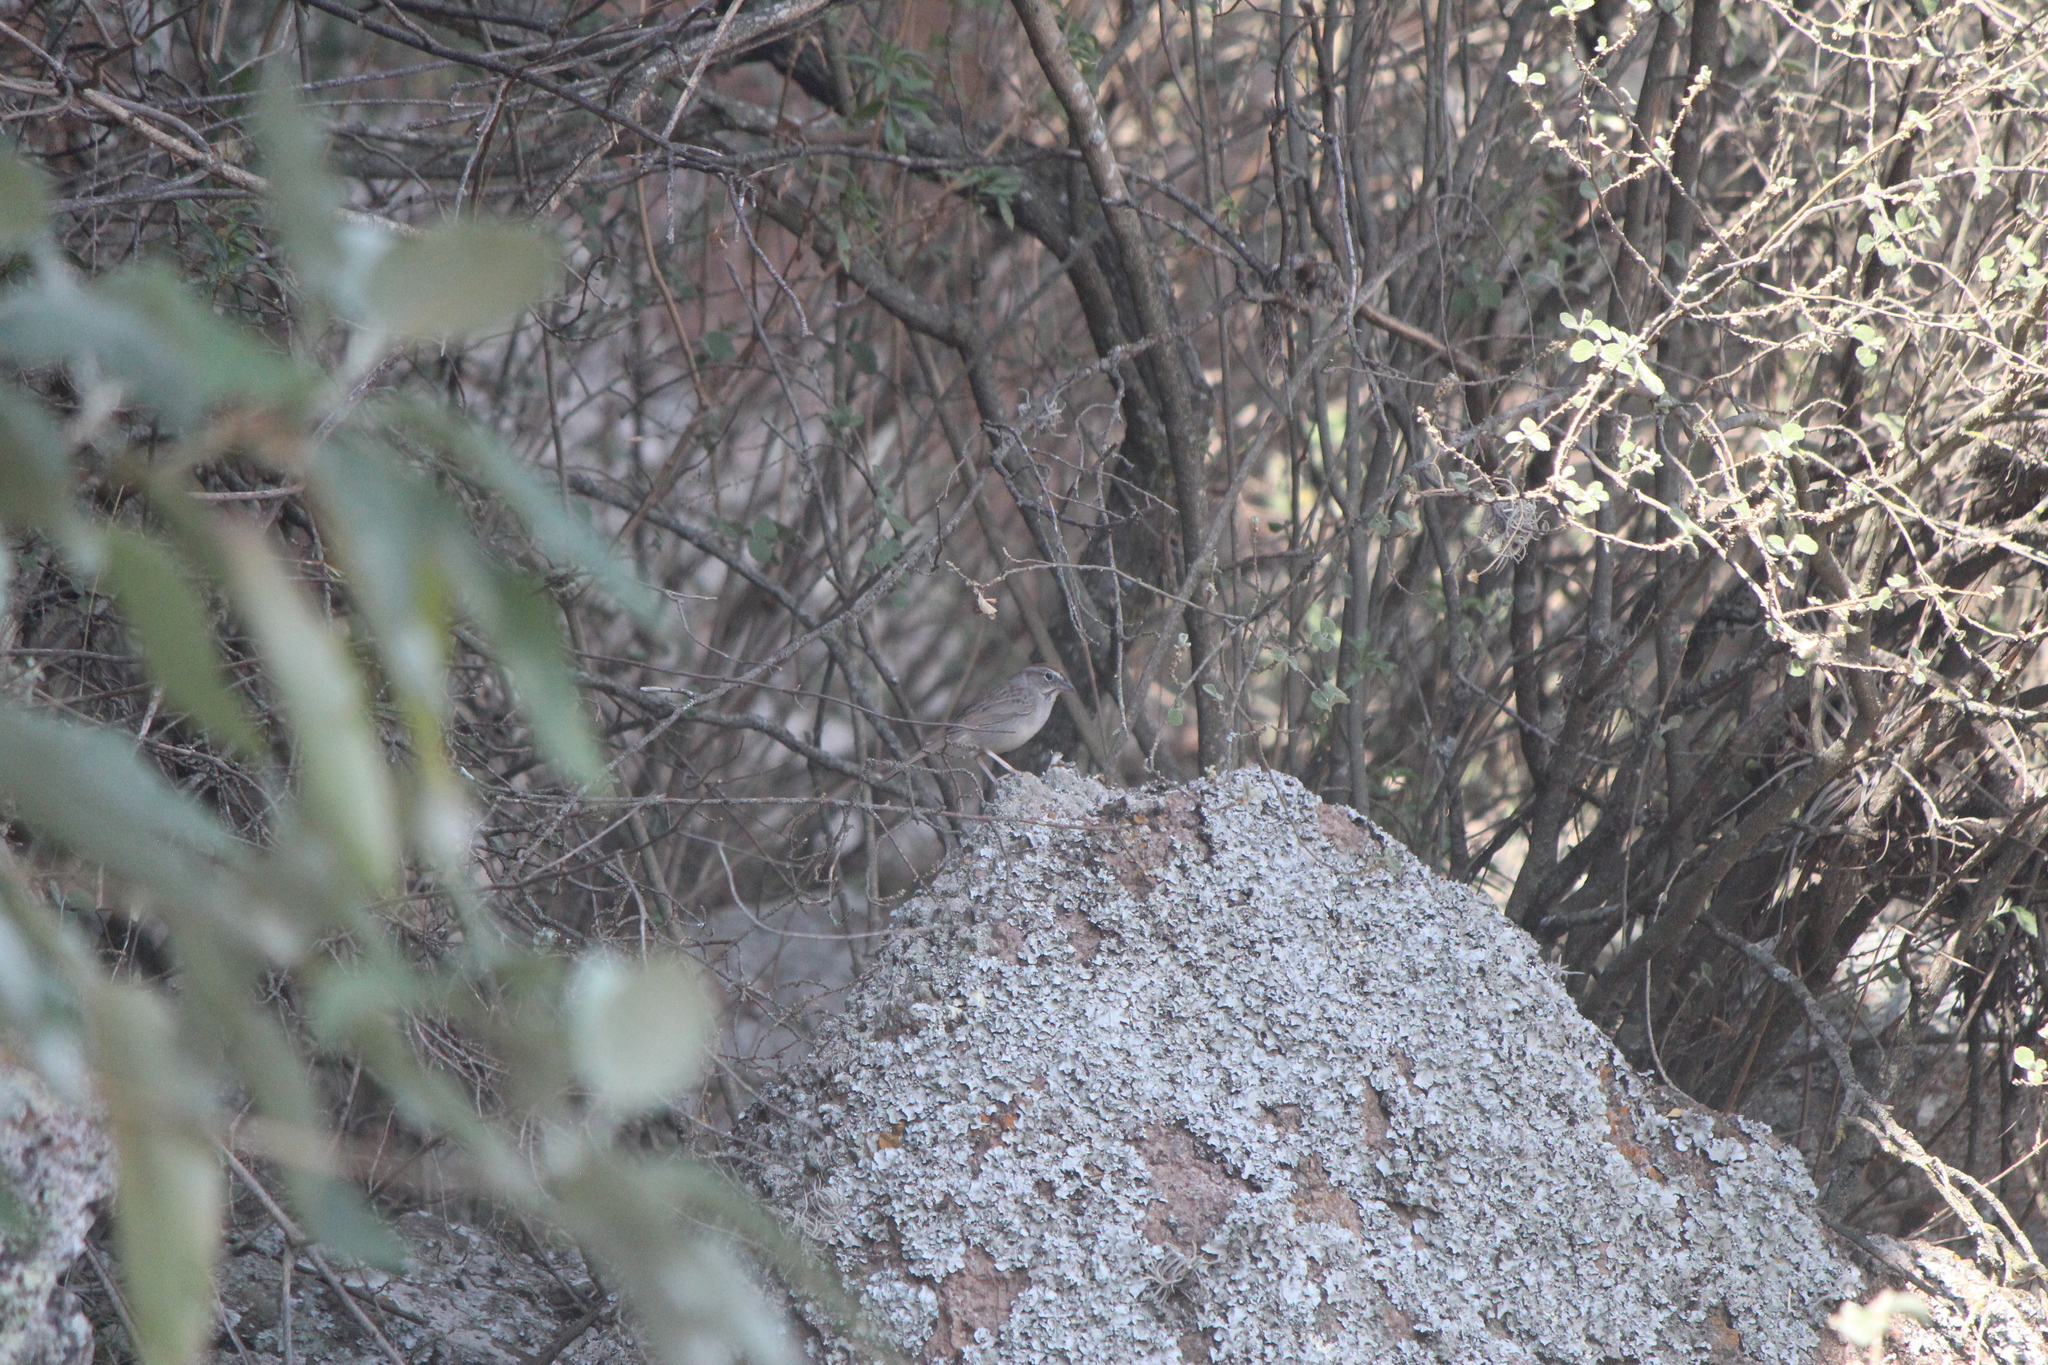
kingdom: Animalia
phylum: Chordata
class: Aves
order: Passeriformes
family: Passerellidae
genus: Aimophila
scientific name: Aimophila ruficeps
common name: Rufous-crowned sparrow
